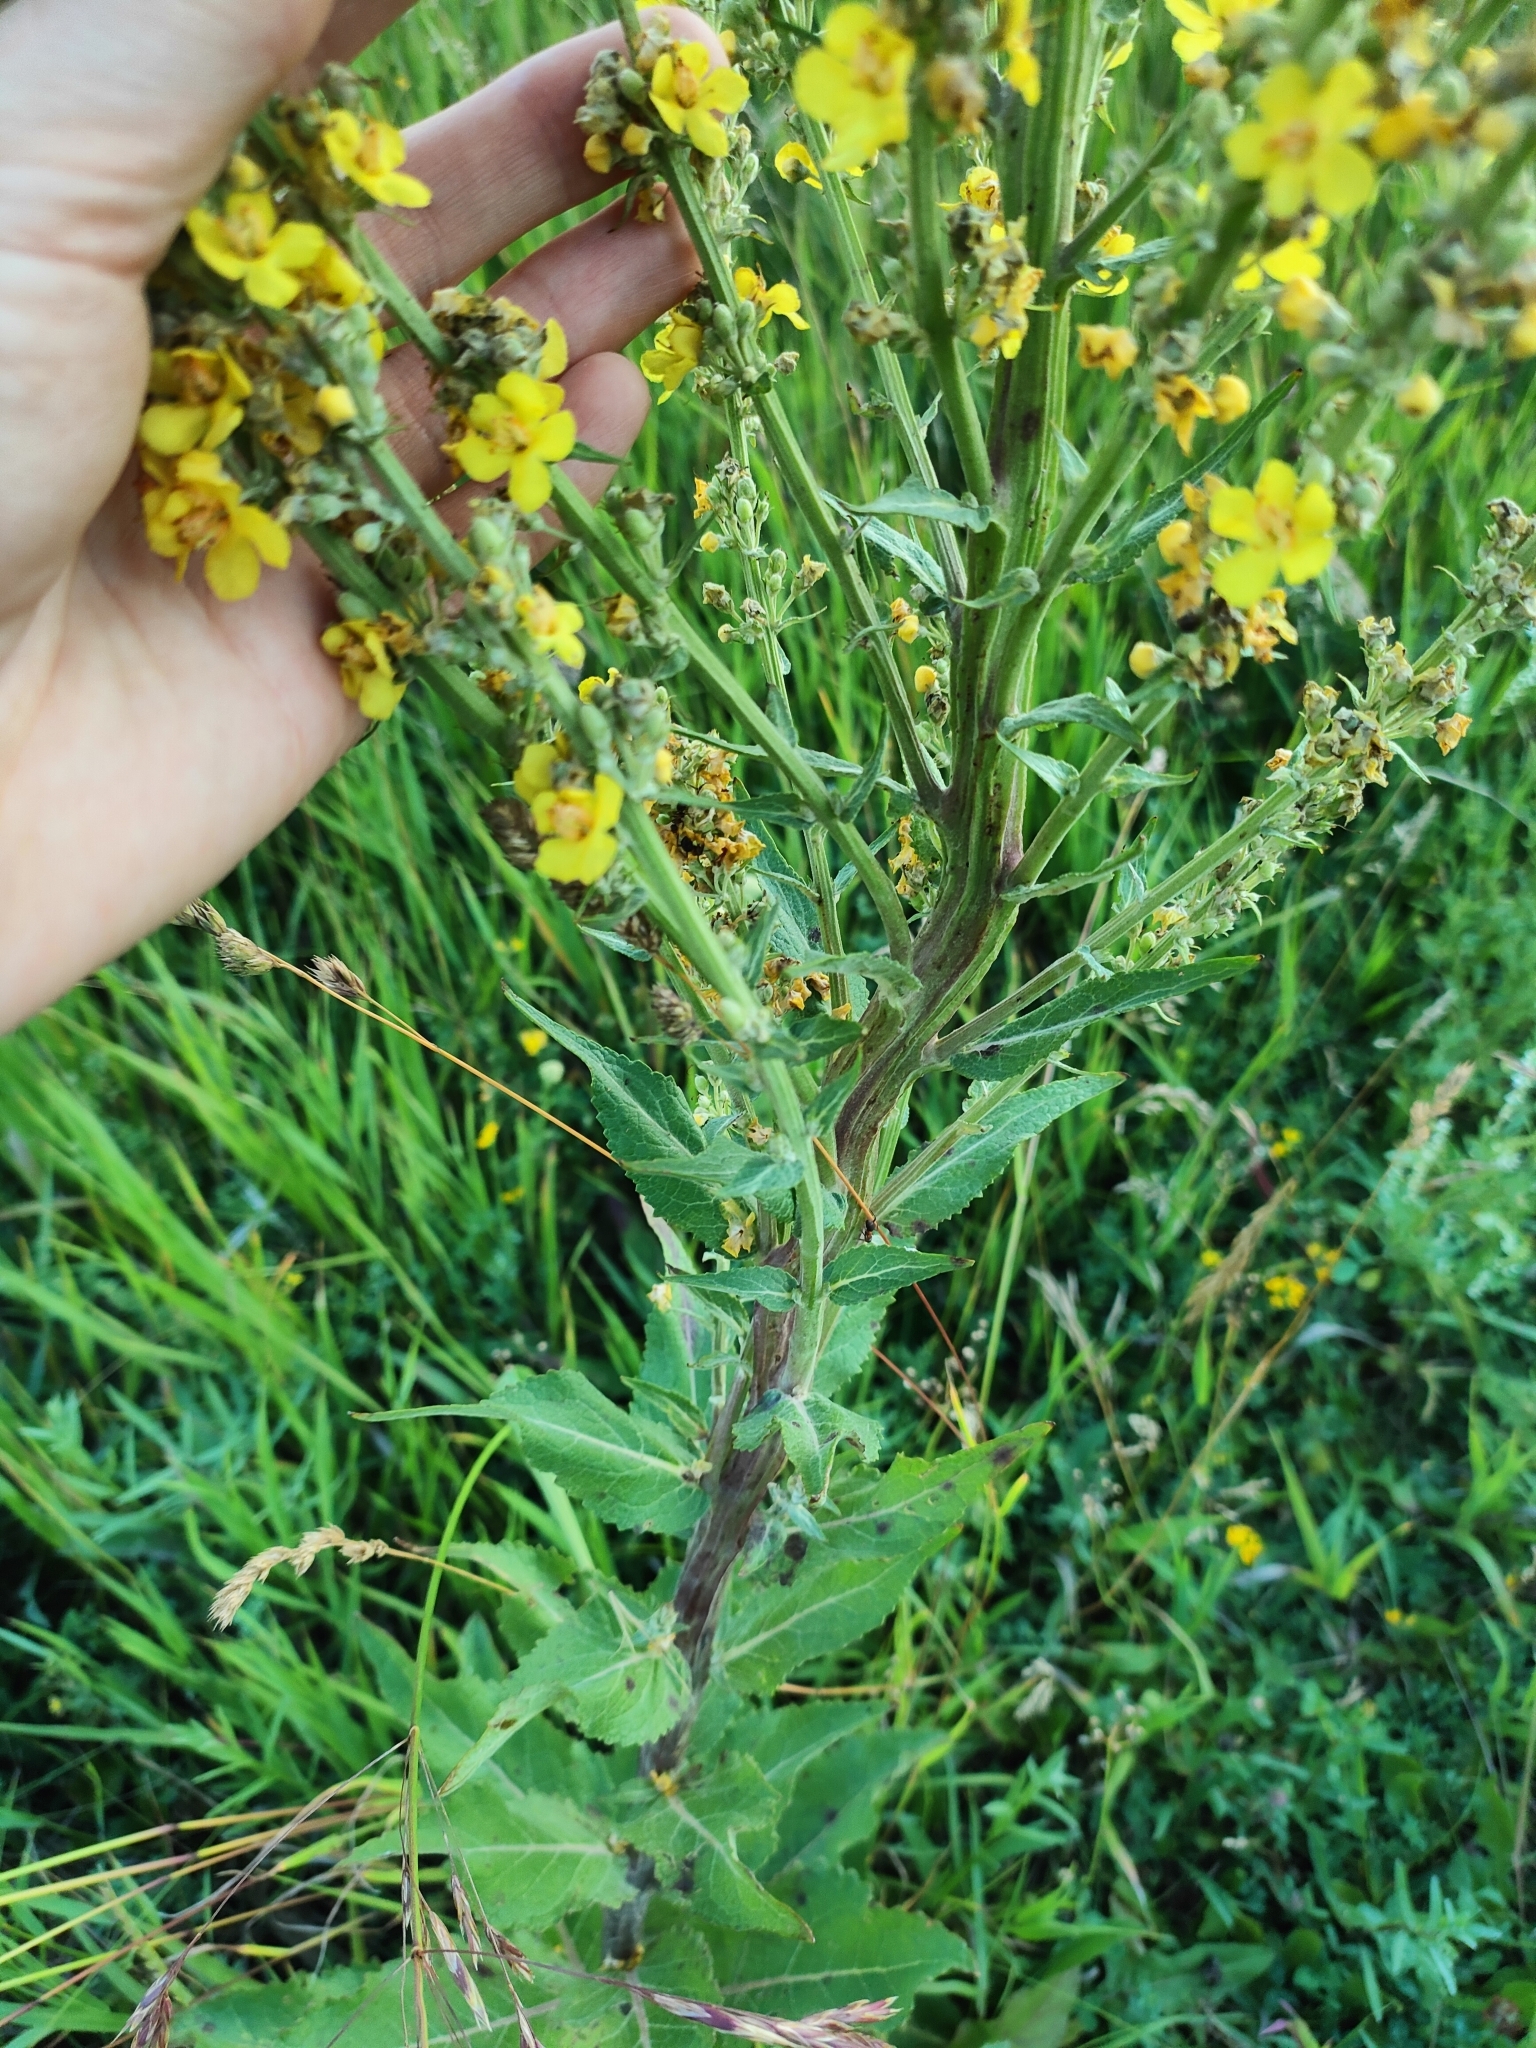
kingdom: Plantae
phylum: Tracheophyta
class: Magnoliopsida
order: Lamiales
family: Scrophulariaceae
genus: Verbascum
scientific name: Verbascum lychnitis
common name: White mullein
